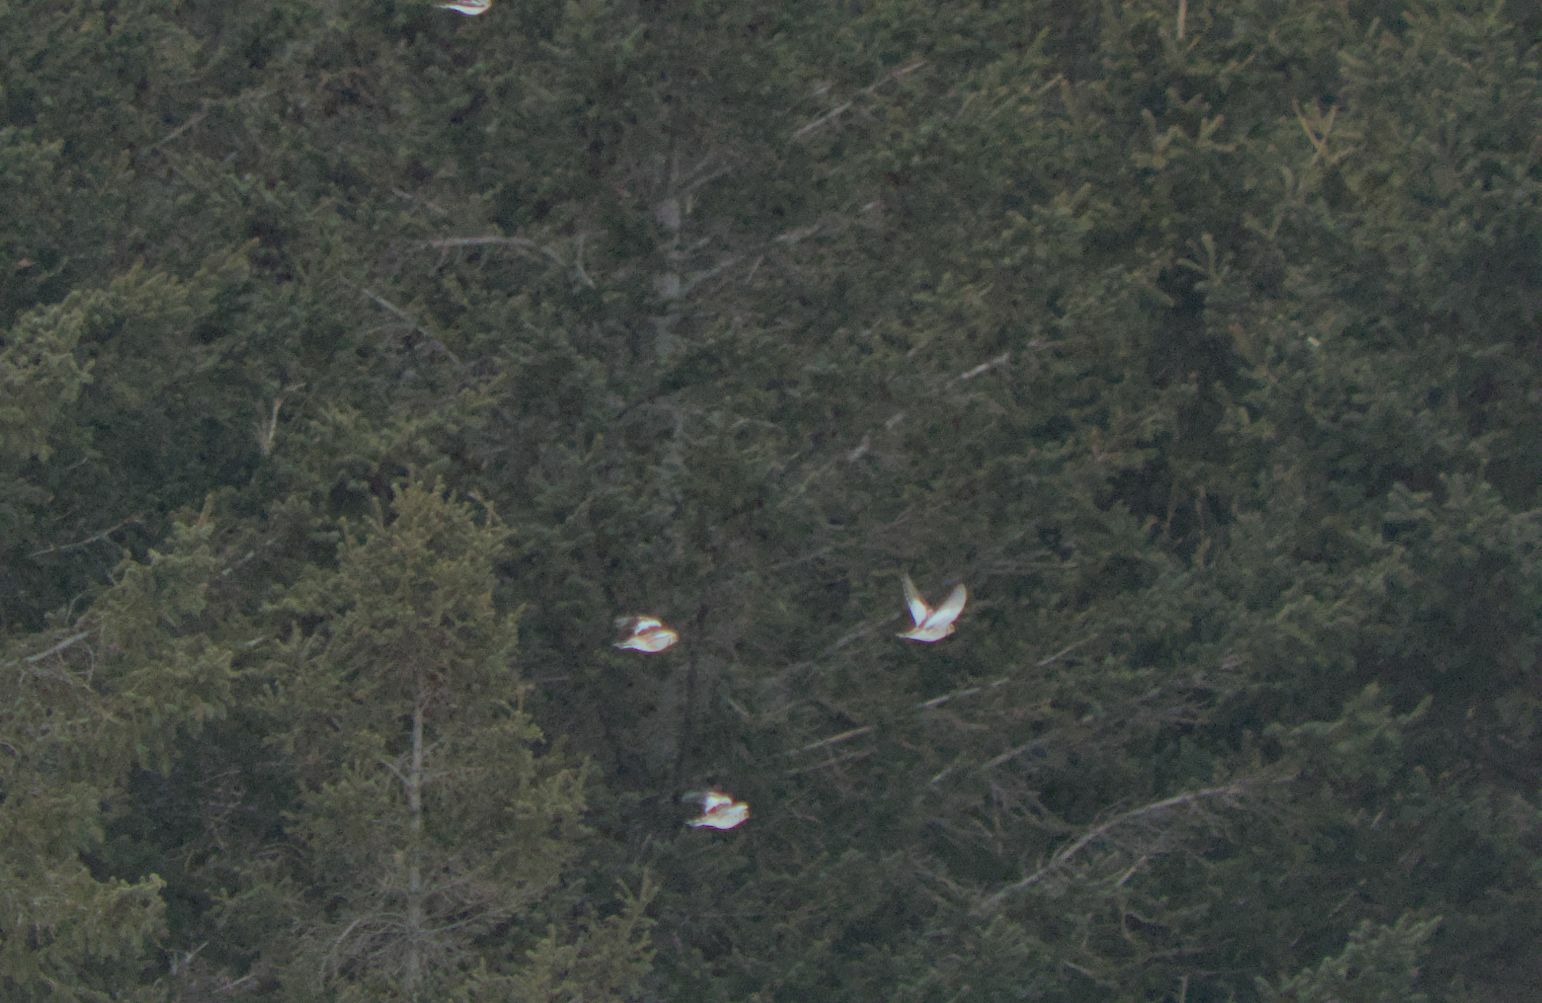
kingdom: Animalia
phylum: Chordata
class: Aves
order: Passeriformes
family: Calcariidae
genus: Plectrophenax
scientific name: Plectrophenax nivalis
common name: Snow bunting
